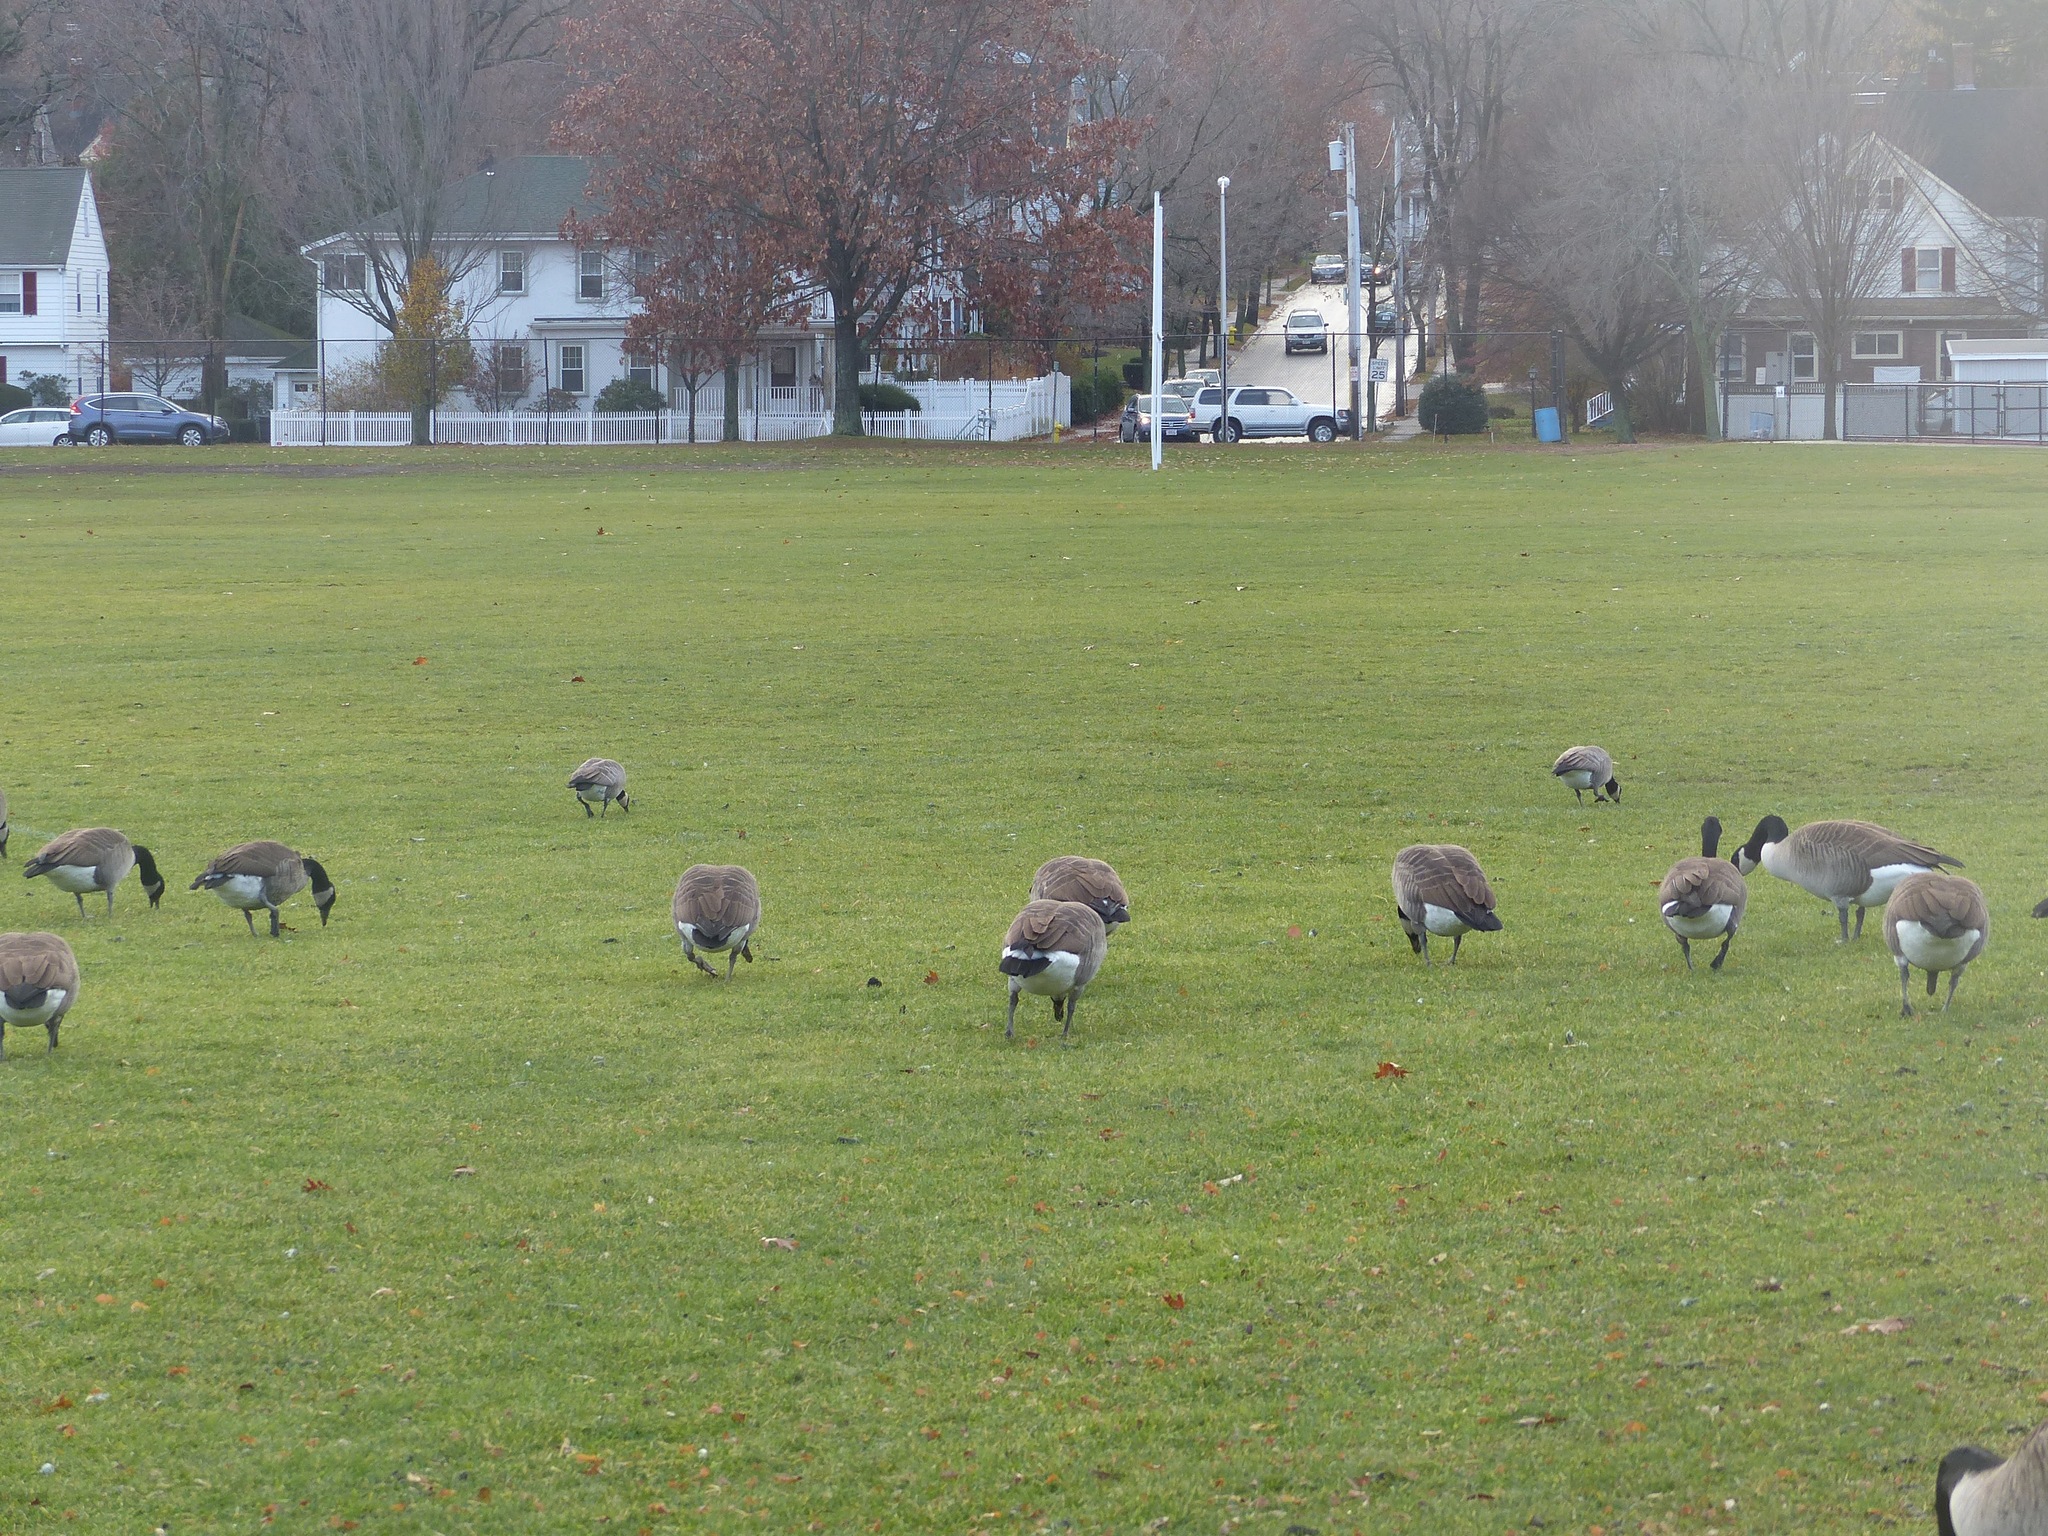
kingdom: Animalia
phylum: Chordata
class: Aves
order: Anseriformes
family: Anatidae
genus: Branta
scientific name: Branta canadensis
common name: Canada goose
